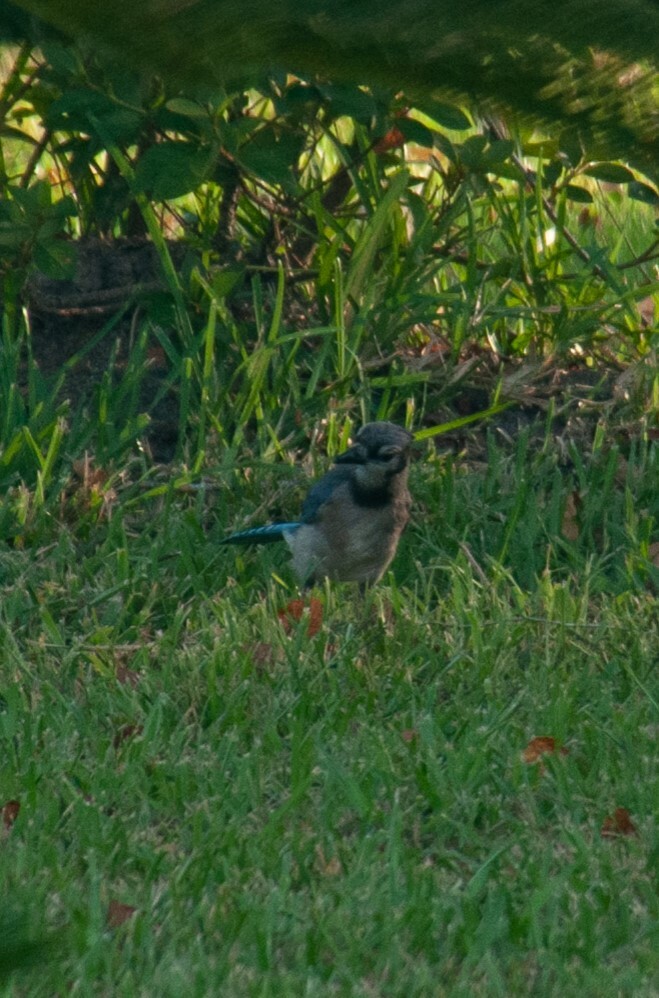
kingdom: Animalia
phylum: Chordata
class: Aves
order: Passeriformes
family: Corvidae
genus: Cyanocitta
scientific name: Cyanocitta cristata
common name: Blue jay
